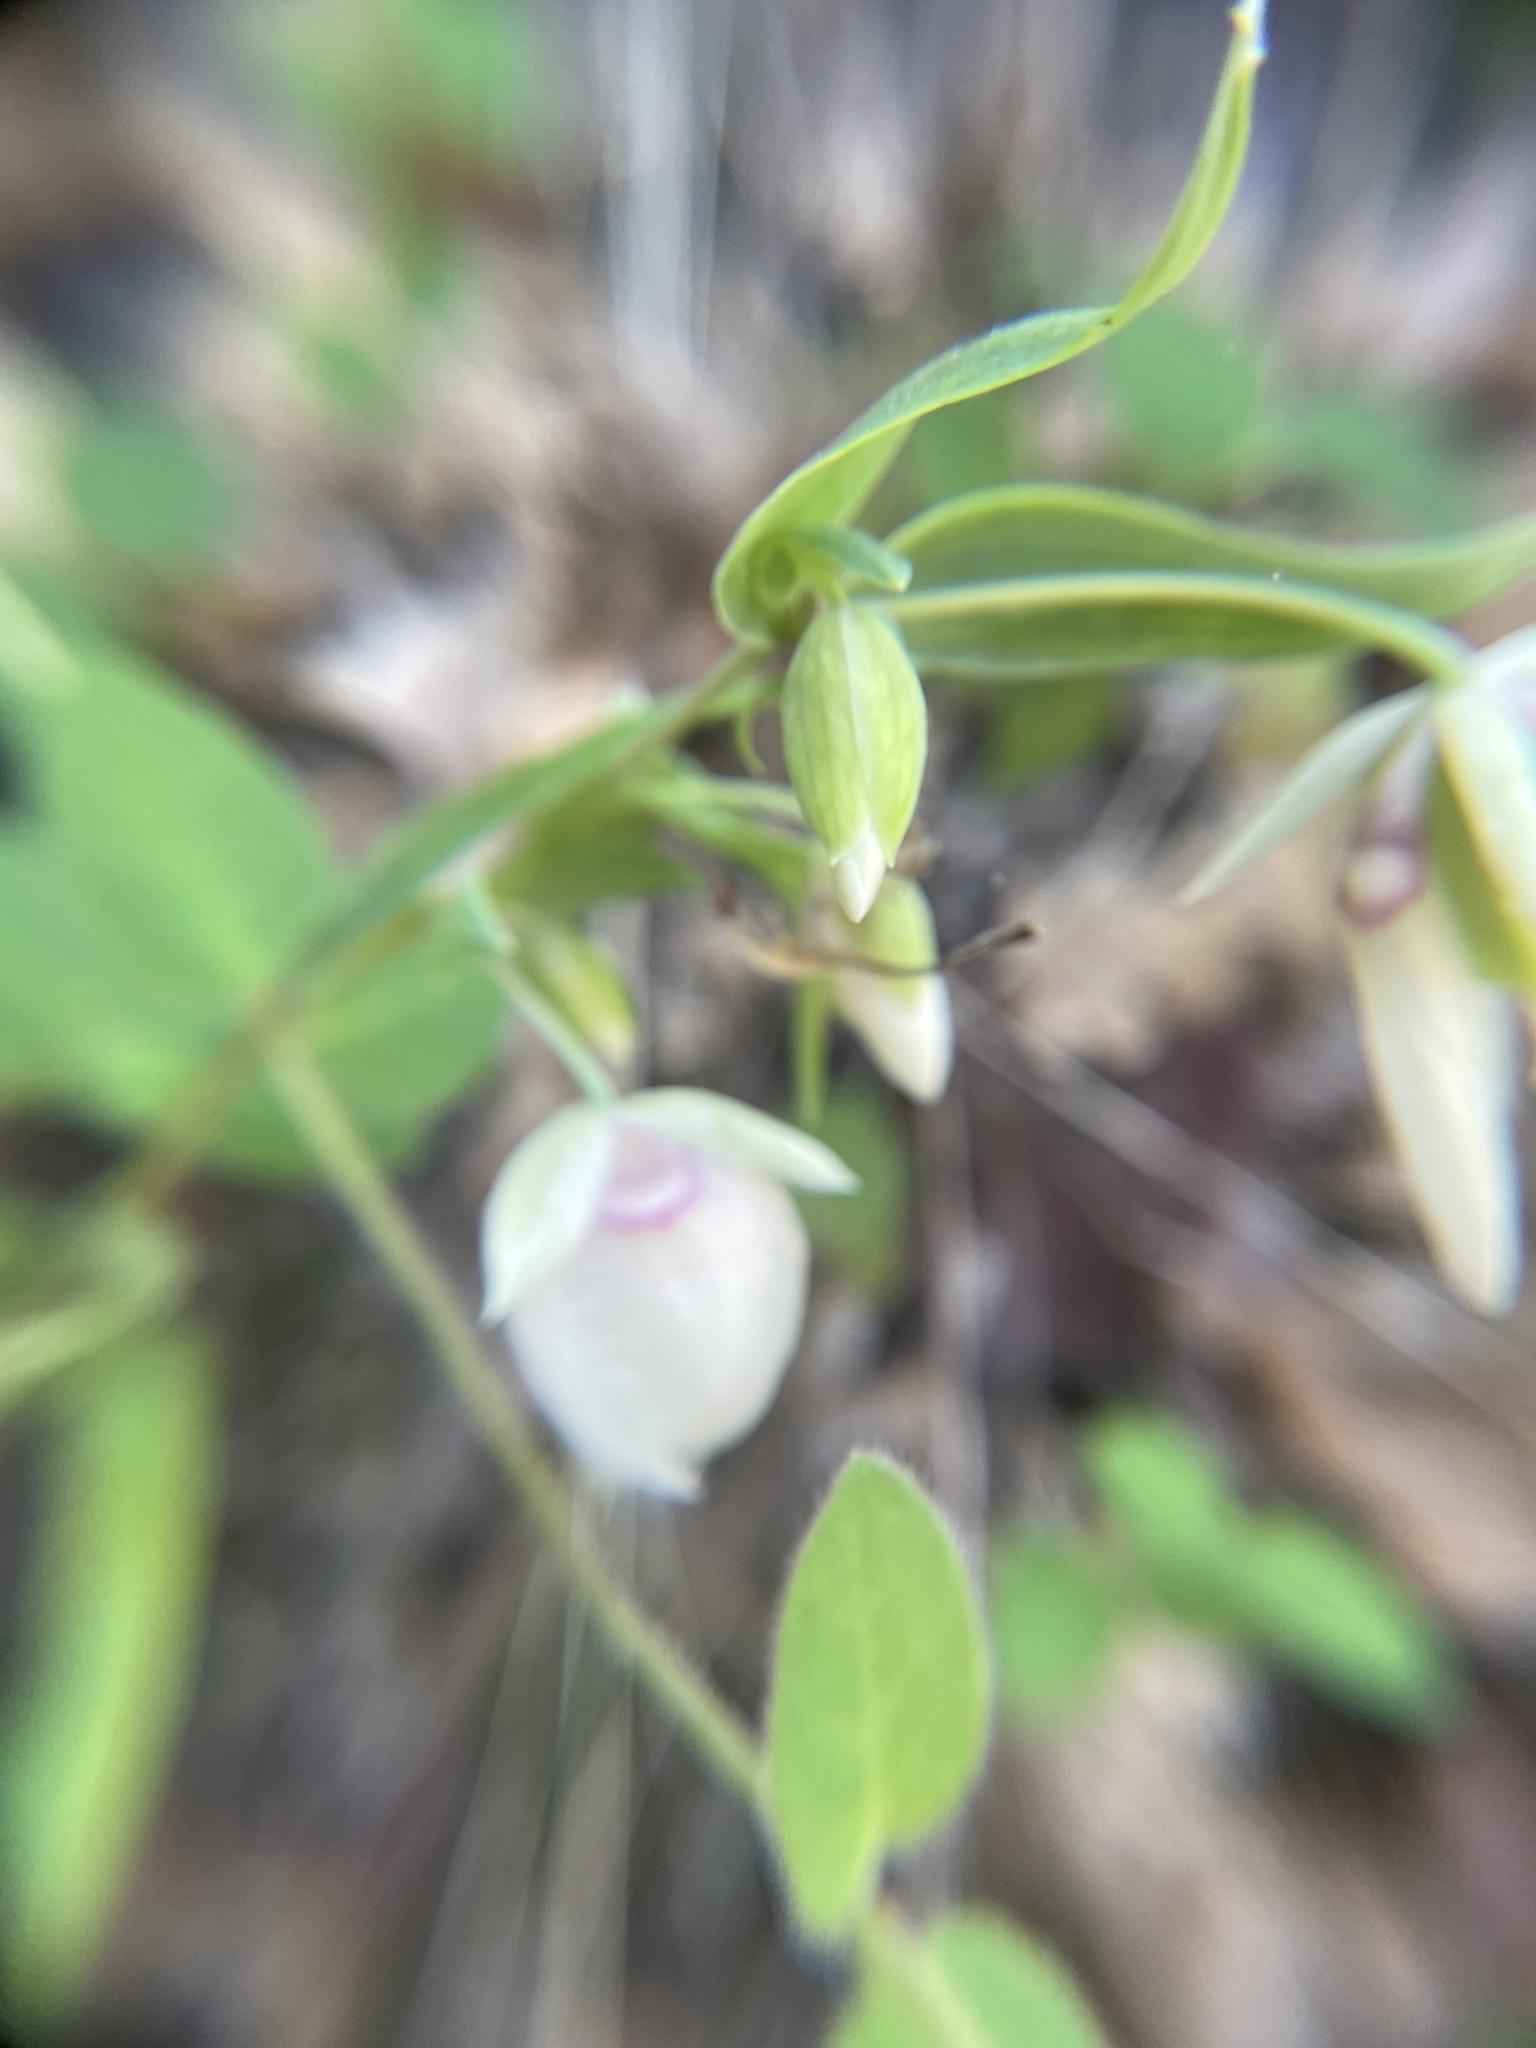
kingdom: Plantae
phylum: Tracheophyta
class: Liliopsida
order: Liliales
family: Liliaceae
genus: Calochortus
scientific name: Calochortus albus
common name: Fairy-lantern
